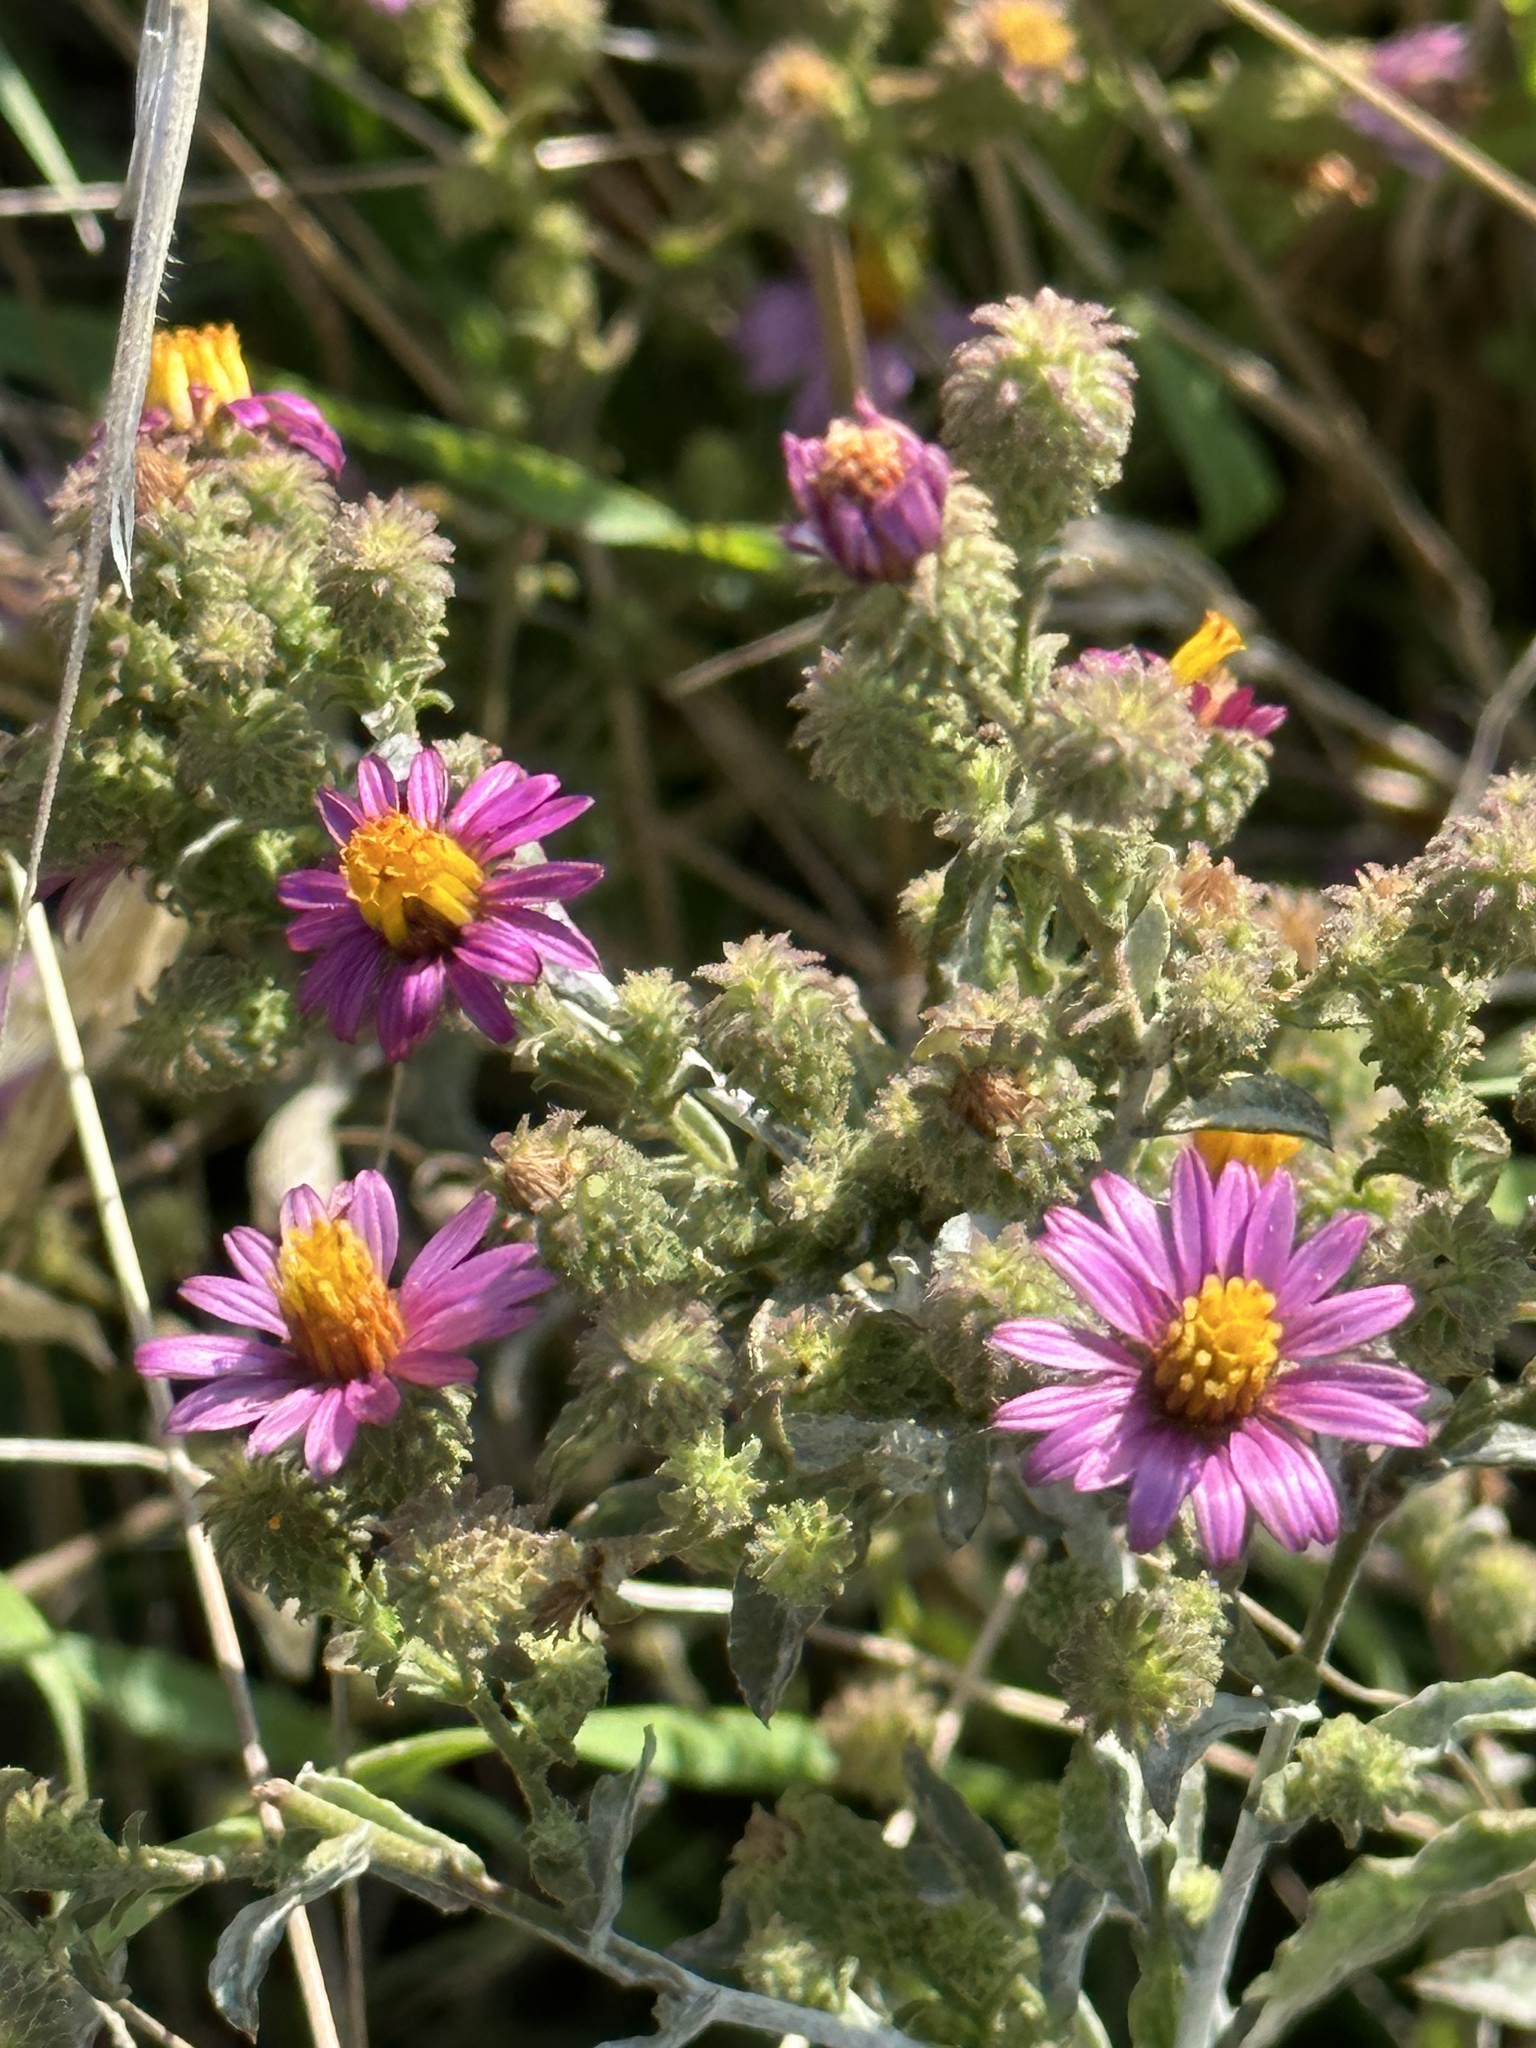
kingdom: Plantae
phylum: Tracheophyta
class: Magnoliopsida
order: Asterales
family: Asteraceae
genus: Corethrogyne
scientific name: Corethrogyne filaginifolia
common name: Sand-aster
